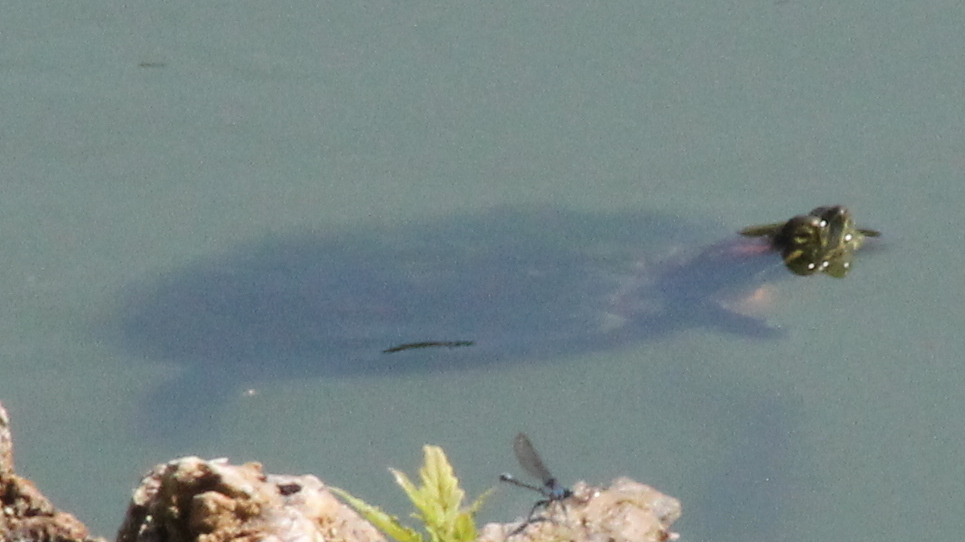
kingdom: Animalia
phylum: Chordata
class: Testudines
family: Emydidae
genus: Trachemys
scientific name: Trachemys scripta
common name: Slider
